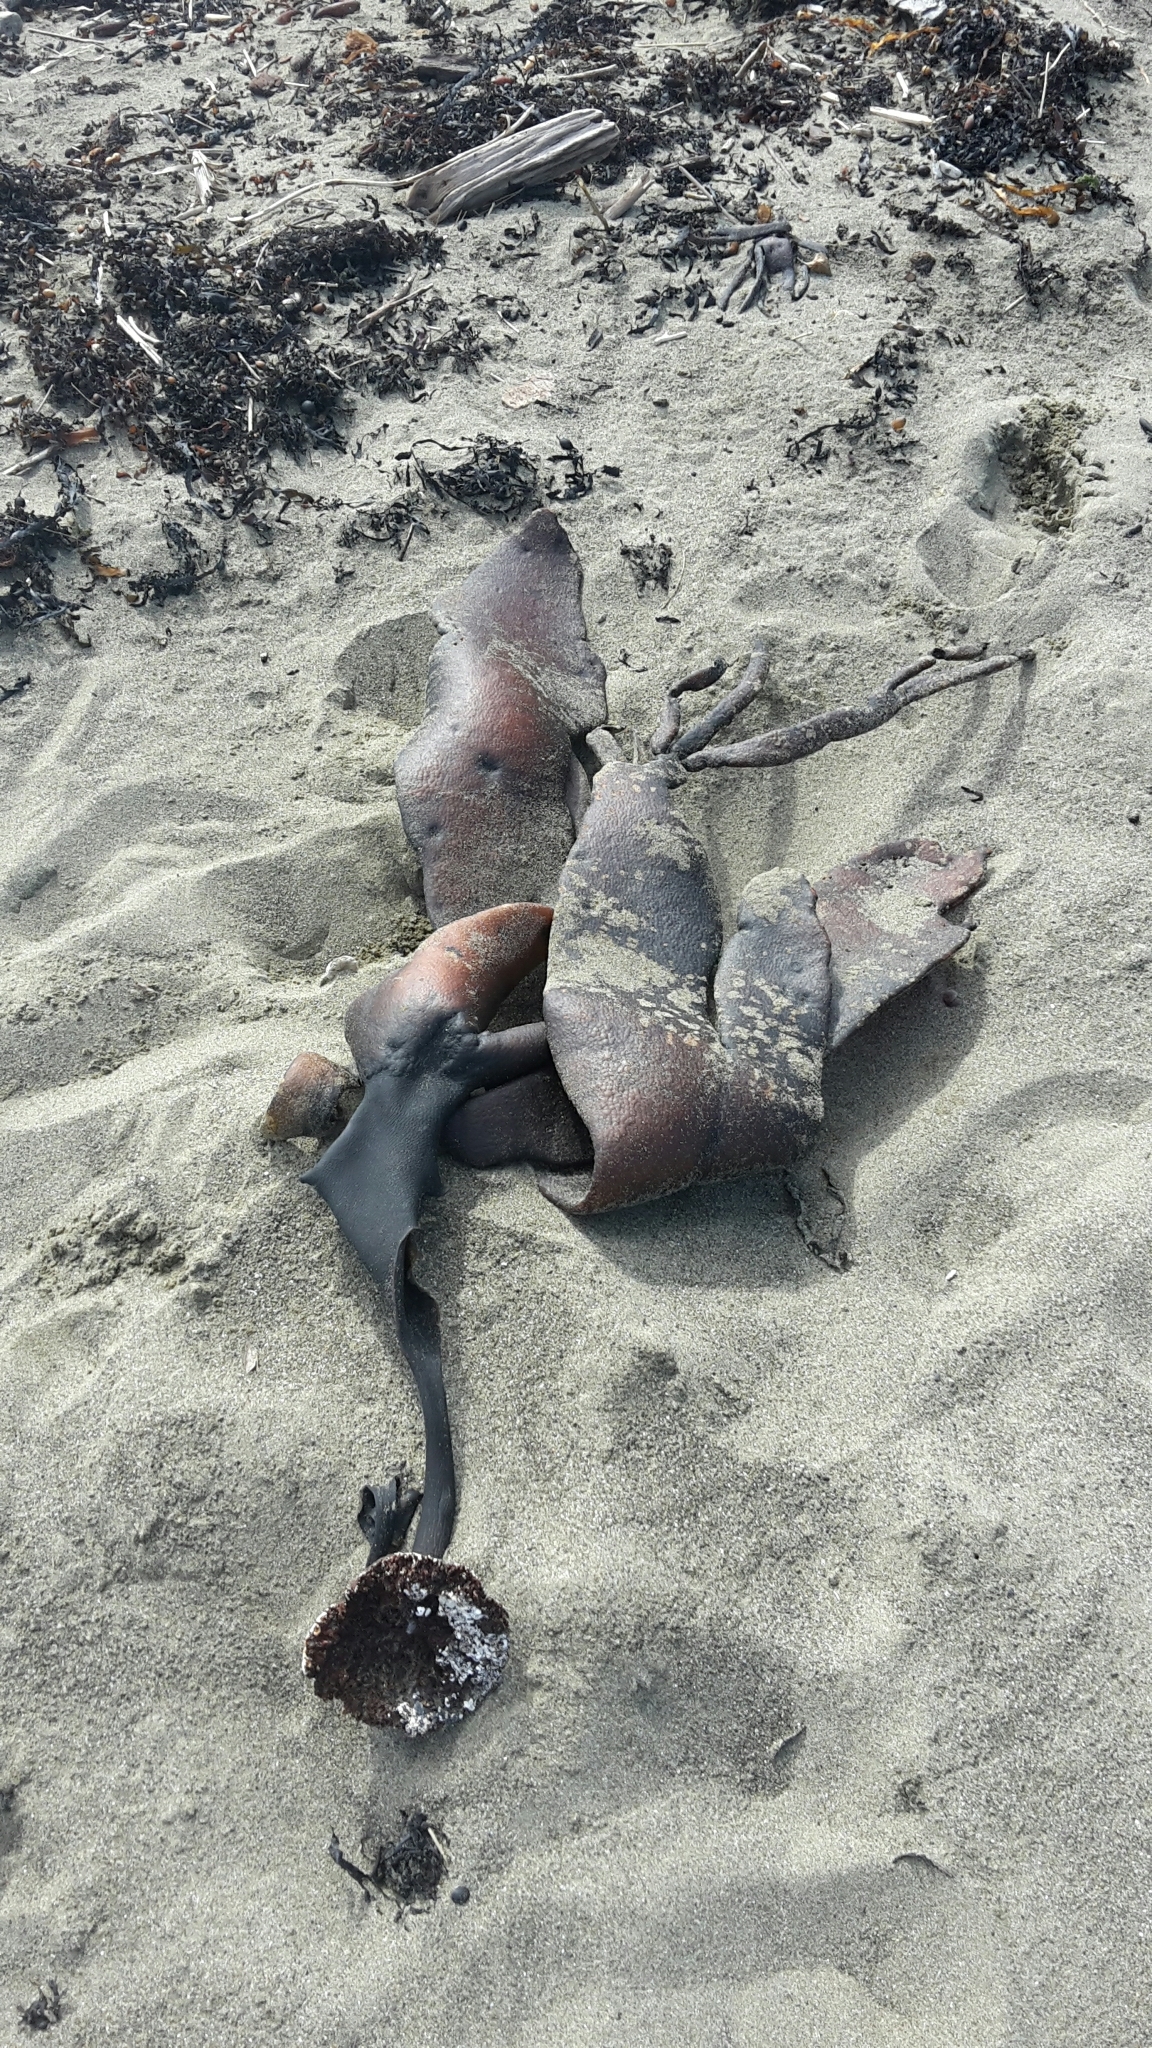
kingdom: Chromista
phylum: Ochrophyta
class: Phaeophyceae
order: Fucales
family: Durvillaeaceae
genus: Durvillaea
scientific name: Durvillaea antarctica
